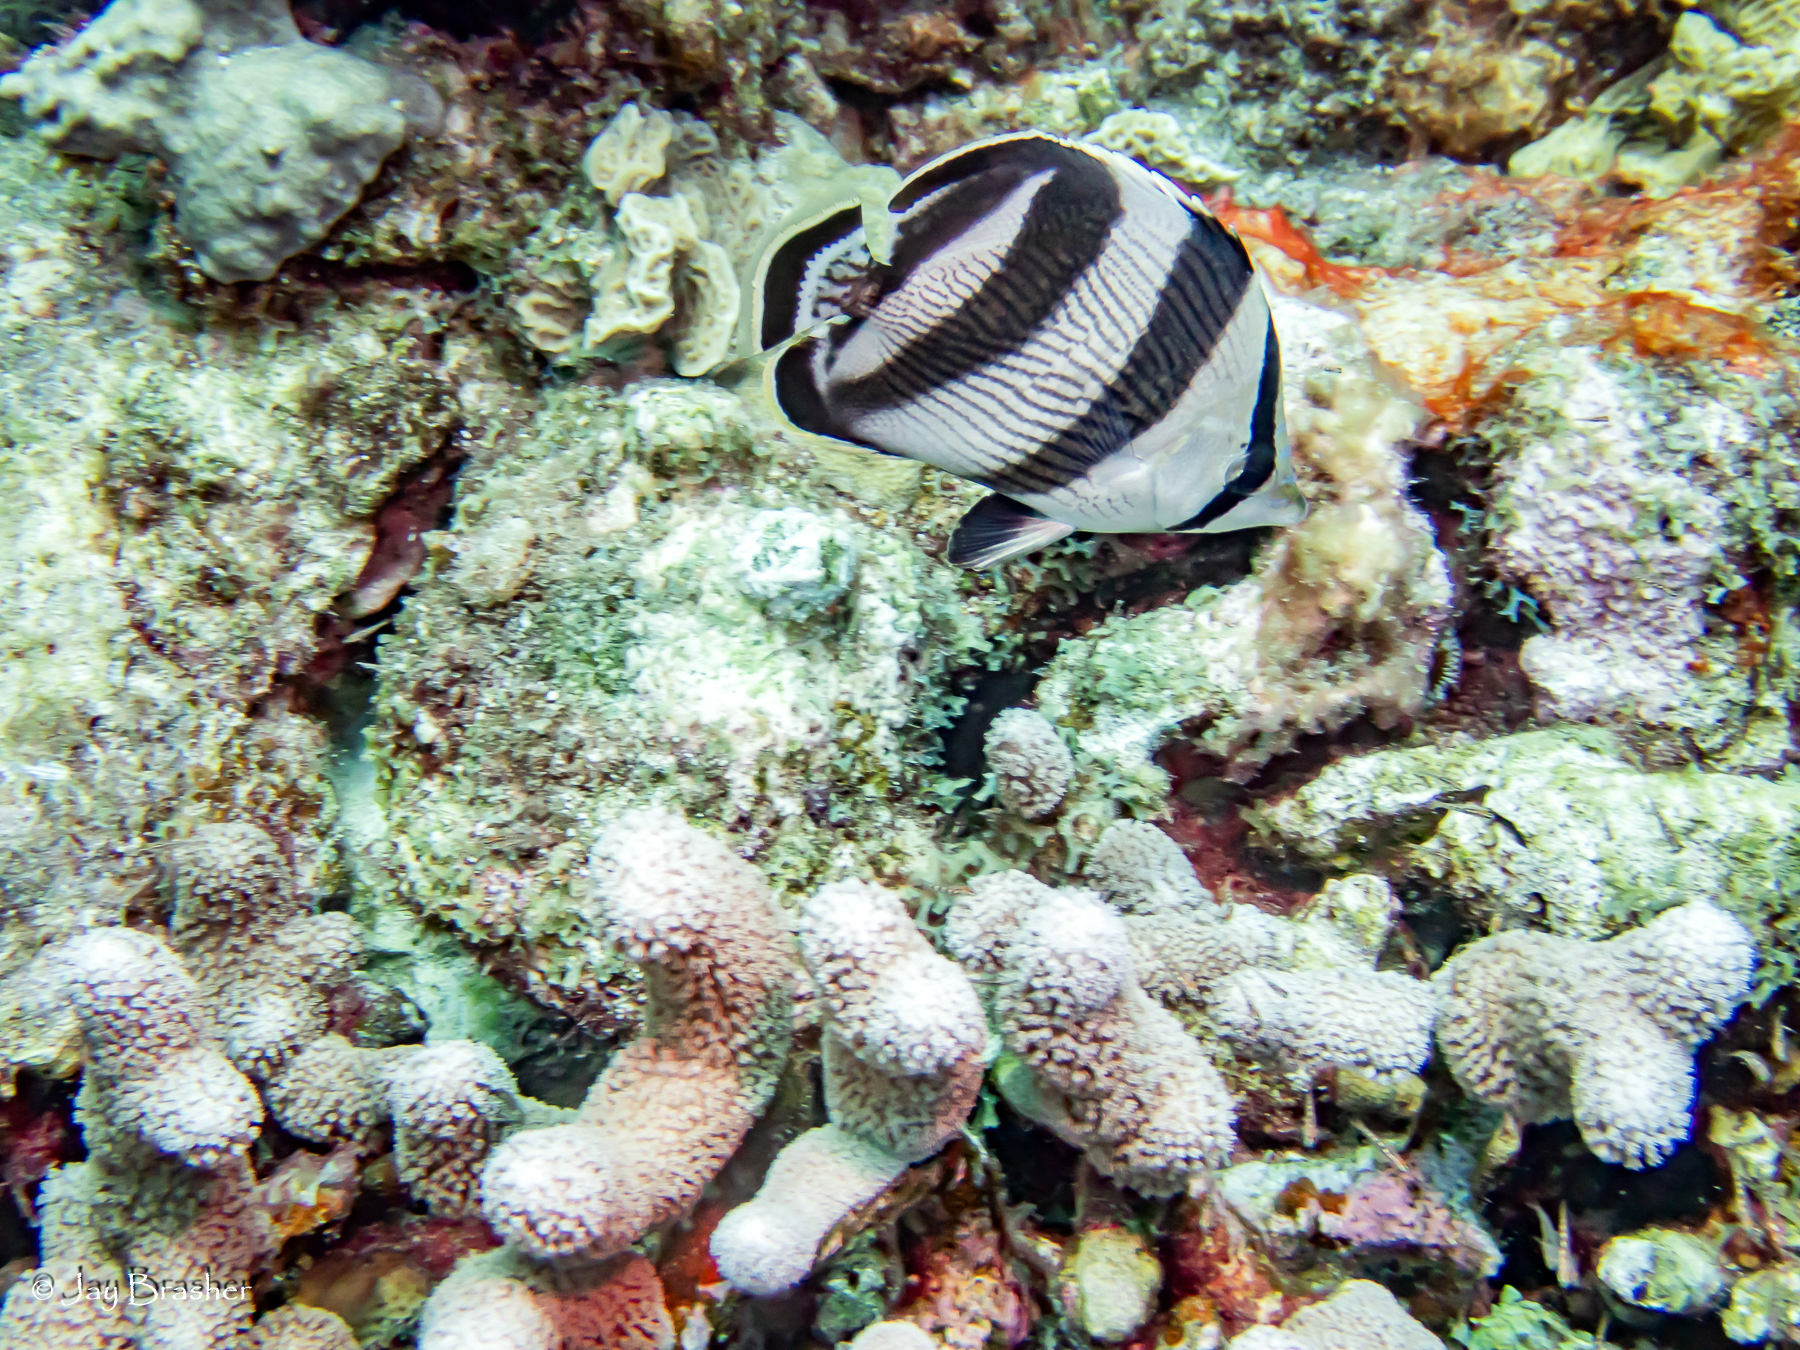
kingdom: Animalia
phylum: Chordata
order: Perciformes
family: Chaetodontidae
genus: Chaetodon
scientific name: Chaetodon striatus
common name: Banded butterflyfish
